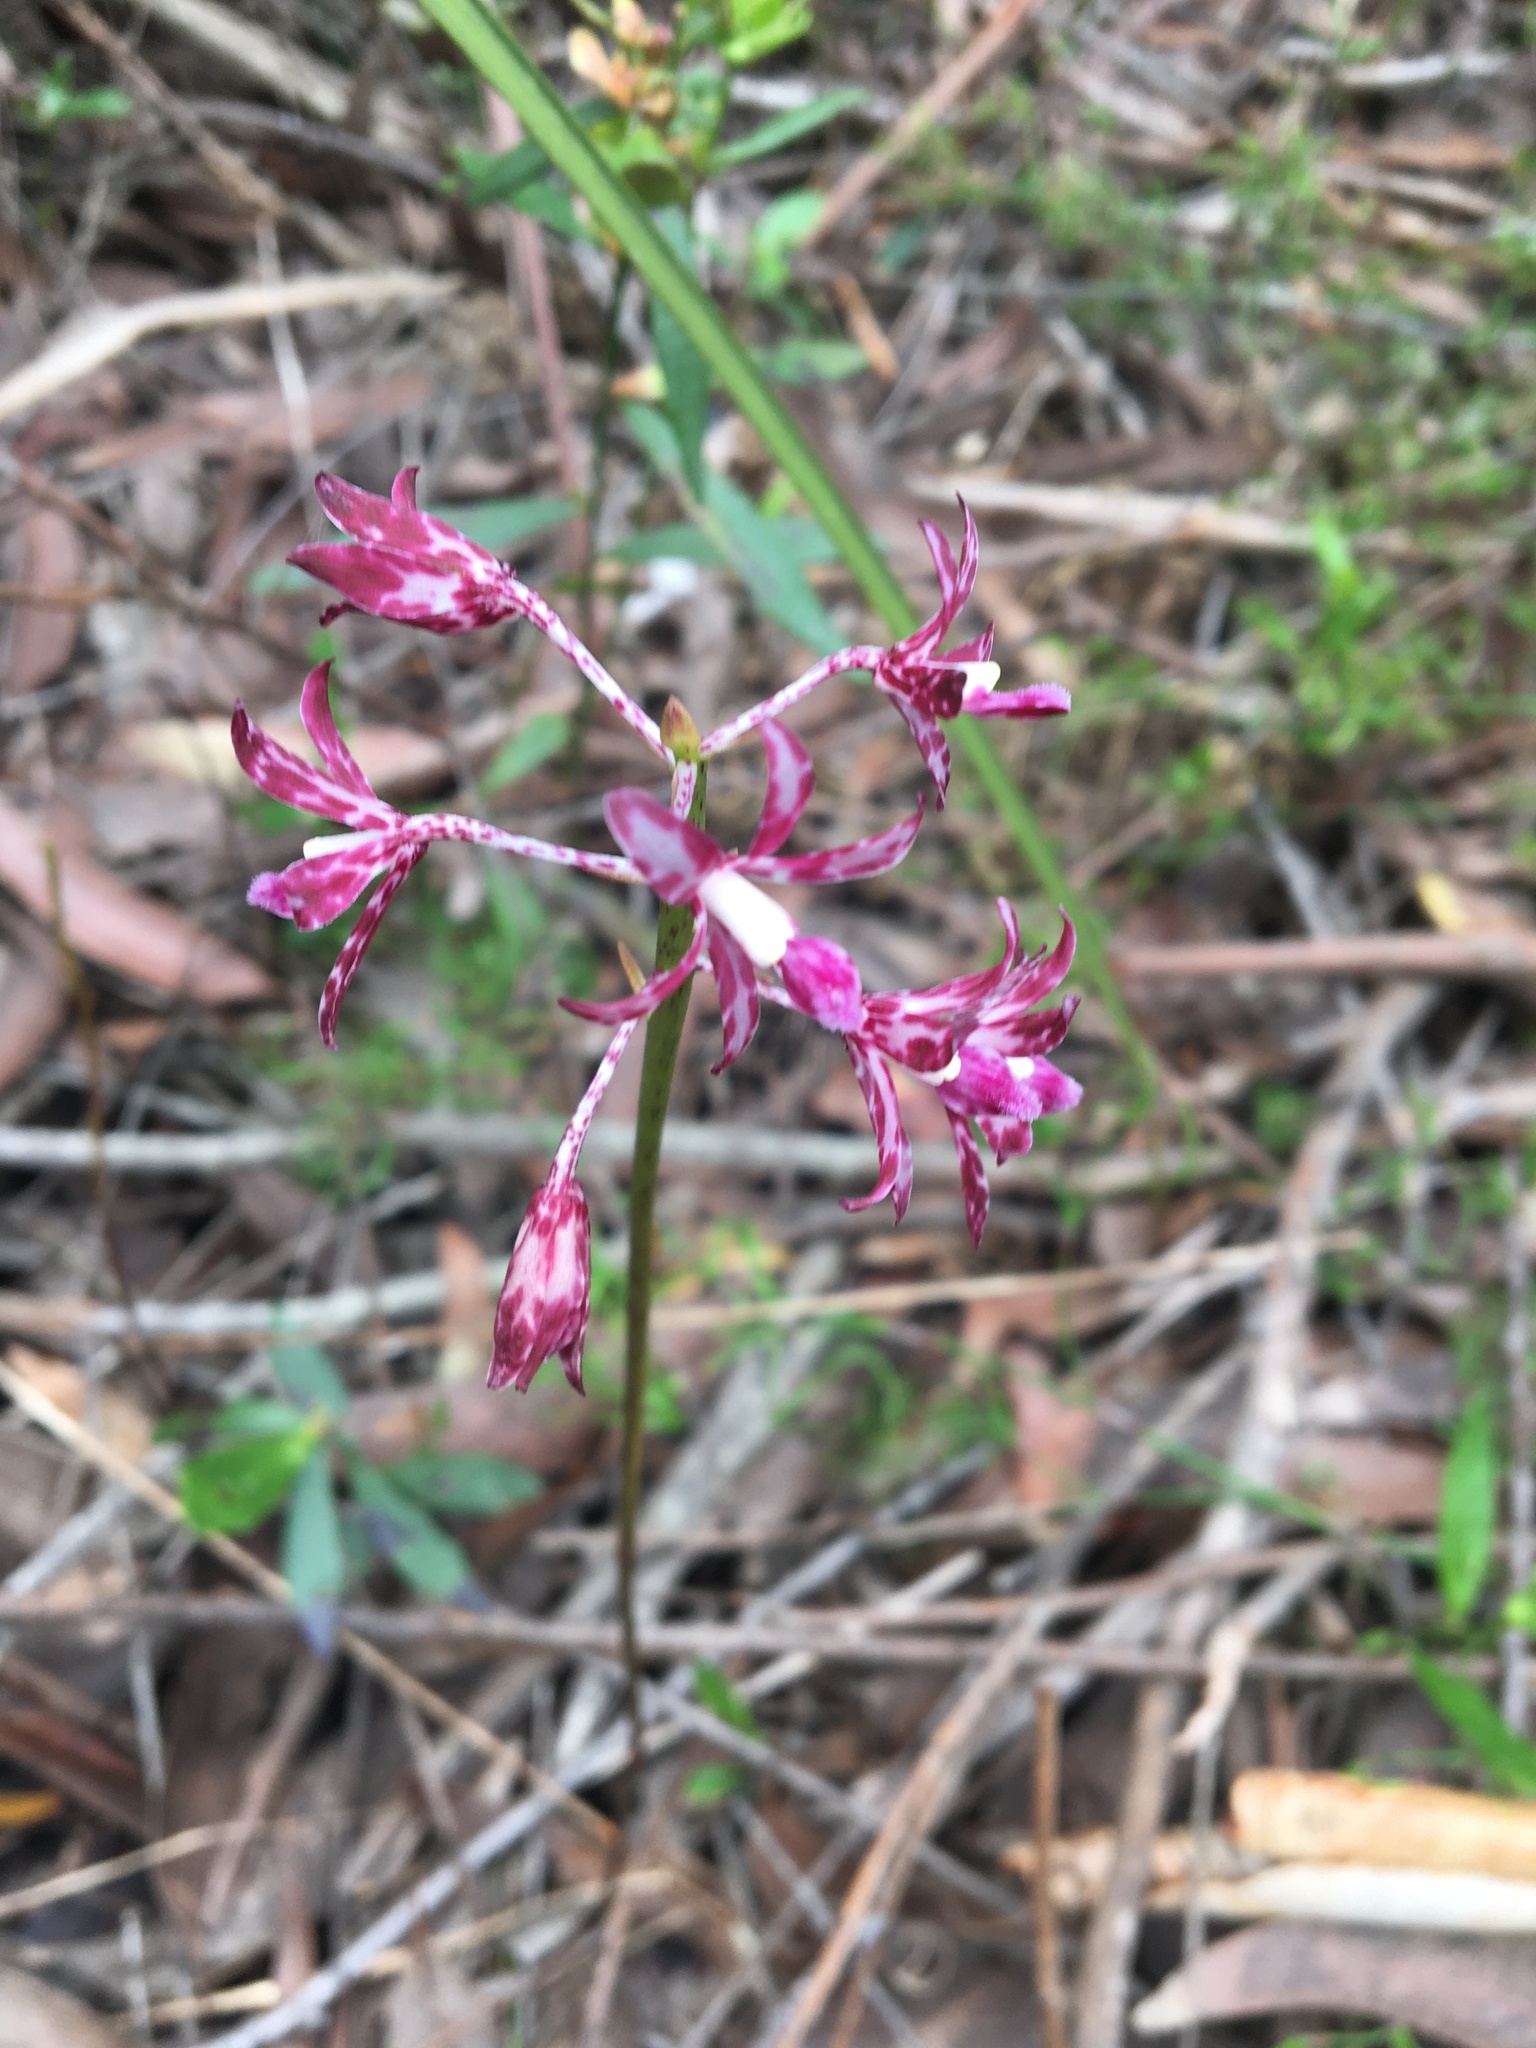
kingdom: Plantae
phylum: Tracheophyta
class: Liliopsida
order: Asparagales
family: Orchidaceae
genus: Dipodium
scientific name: Dipodium variegatum
